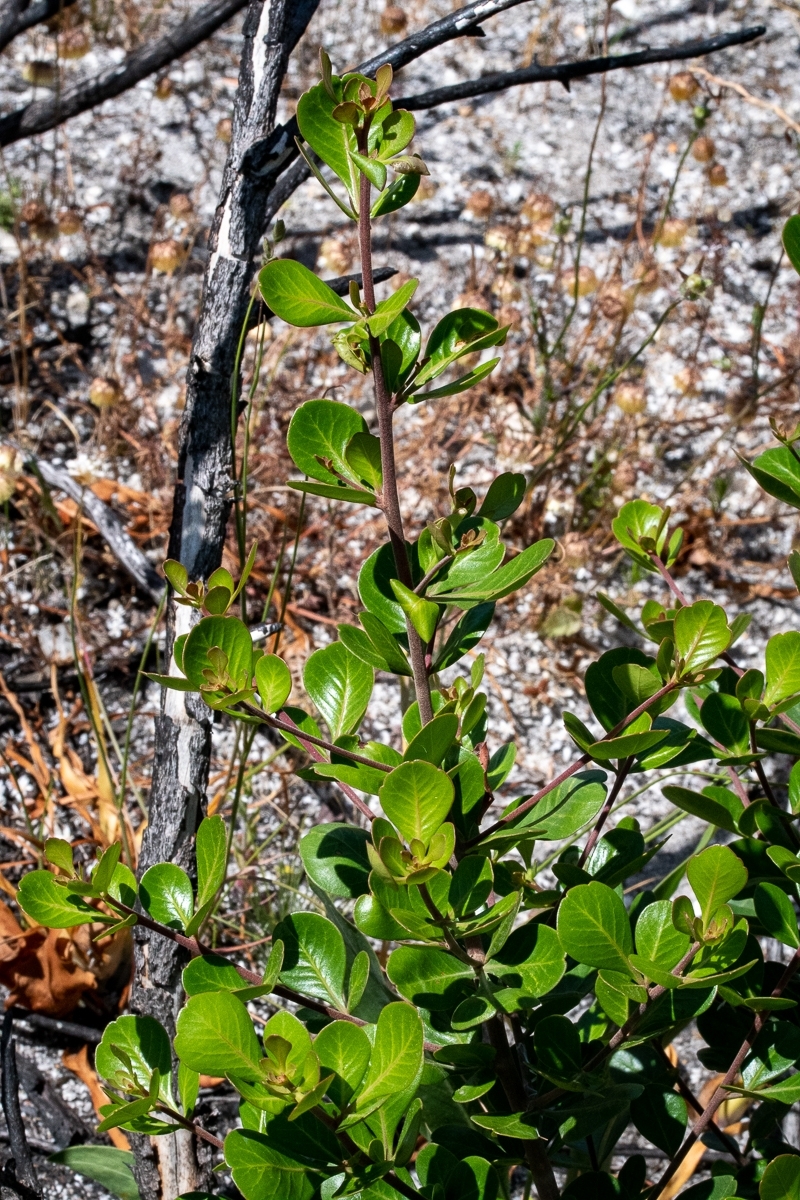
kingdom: Plantae
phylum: Tracheophyta
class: Magnoliopsida
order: Sapindales
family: Anacardiaceae
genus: Searsia
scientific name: Searsia lucida
